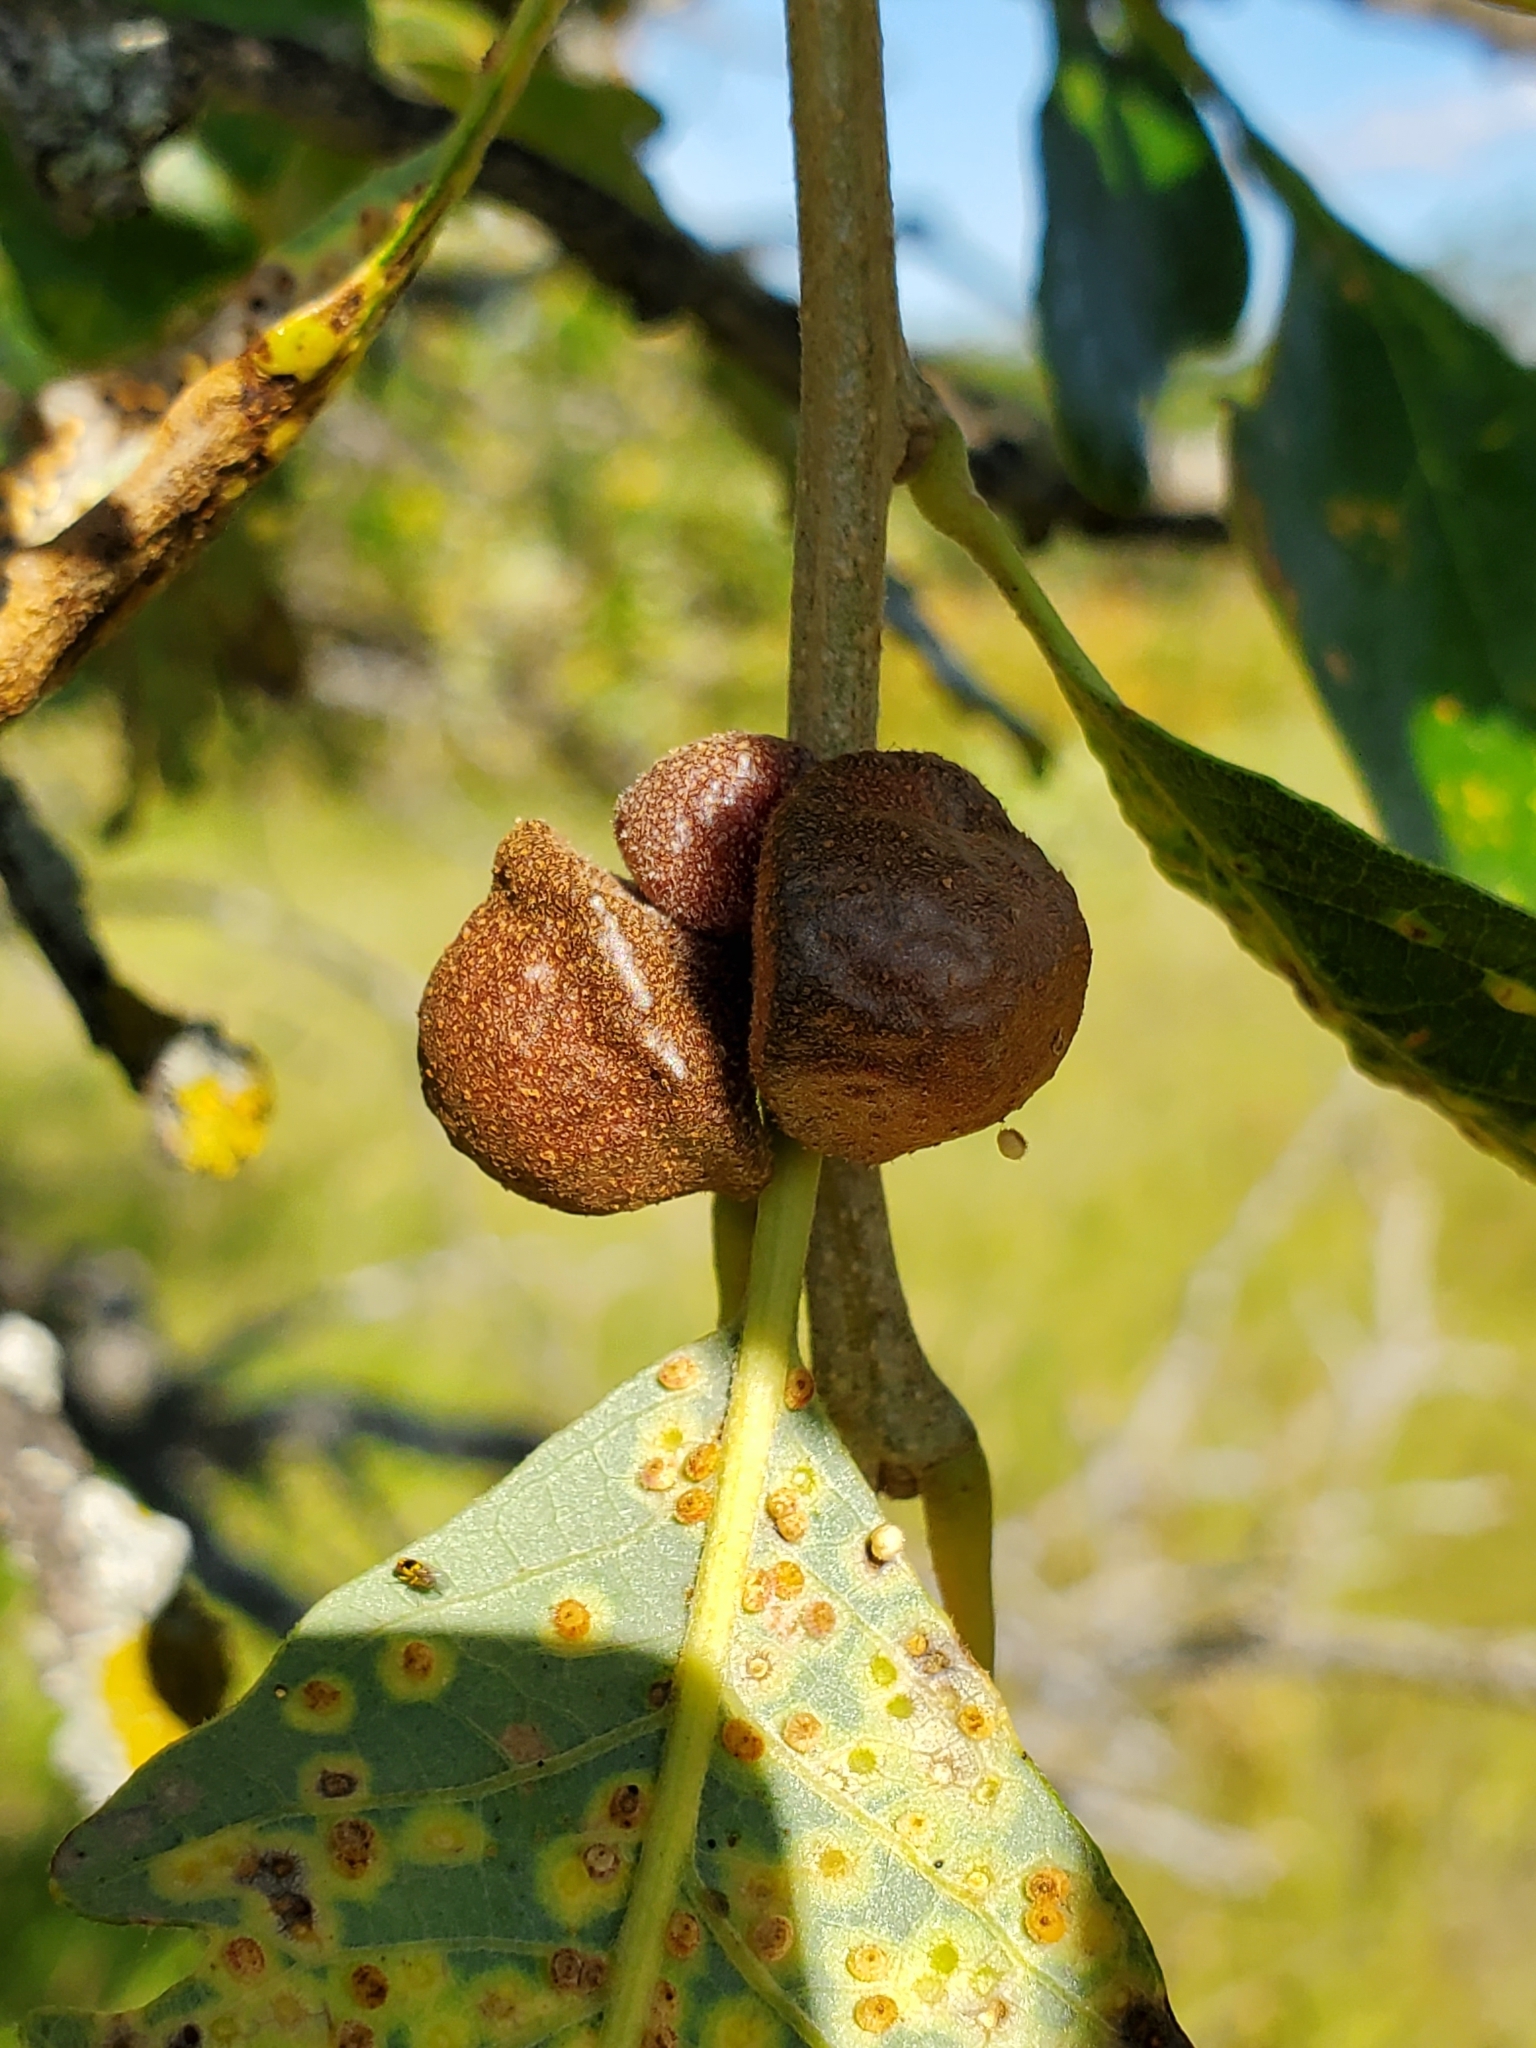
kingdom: Animalia
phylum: Arthropoda
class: Insecta
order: Hymenoptera
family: Cynipidae
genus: Andricus
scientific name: Andricus
